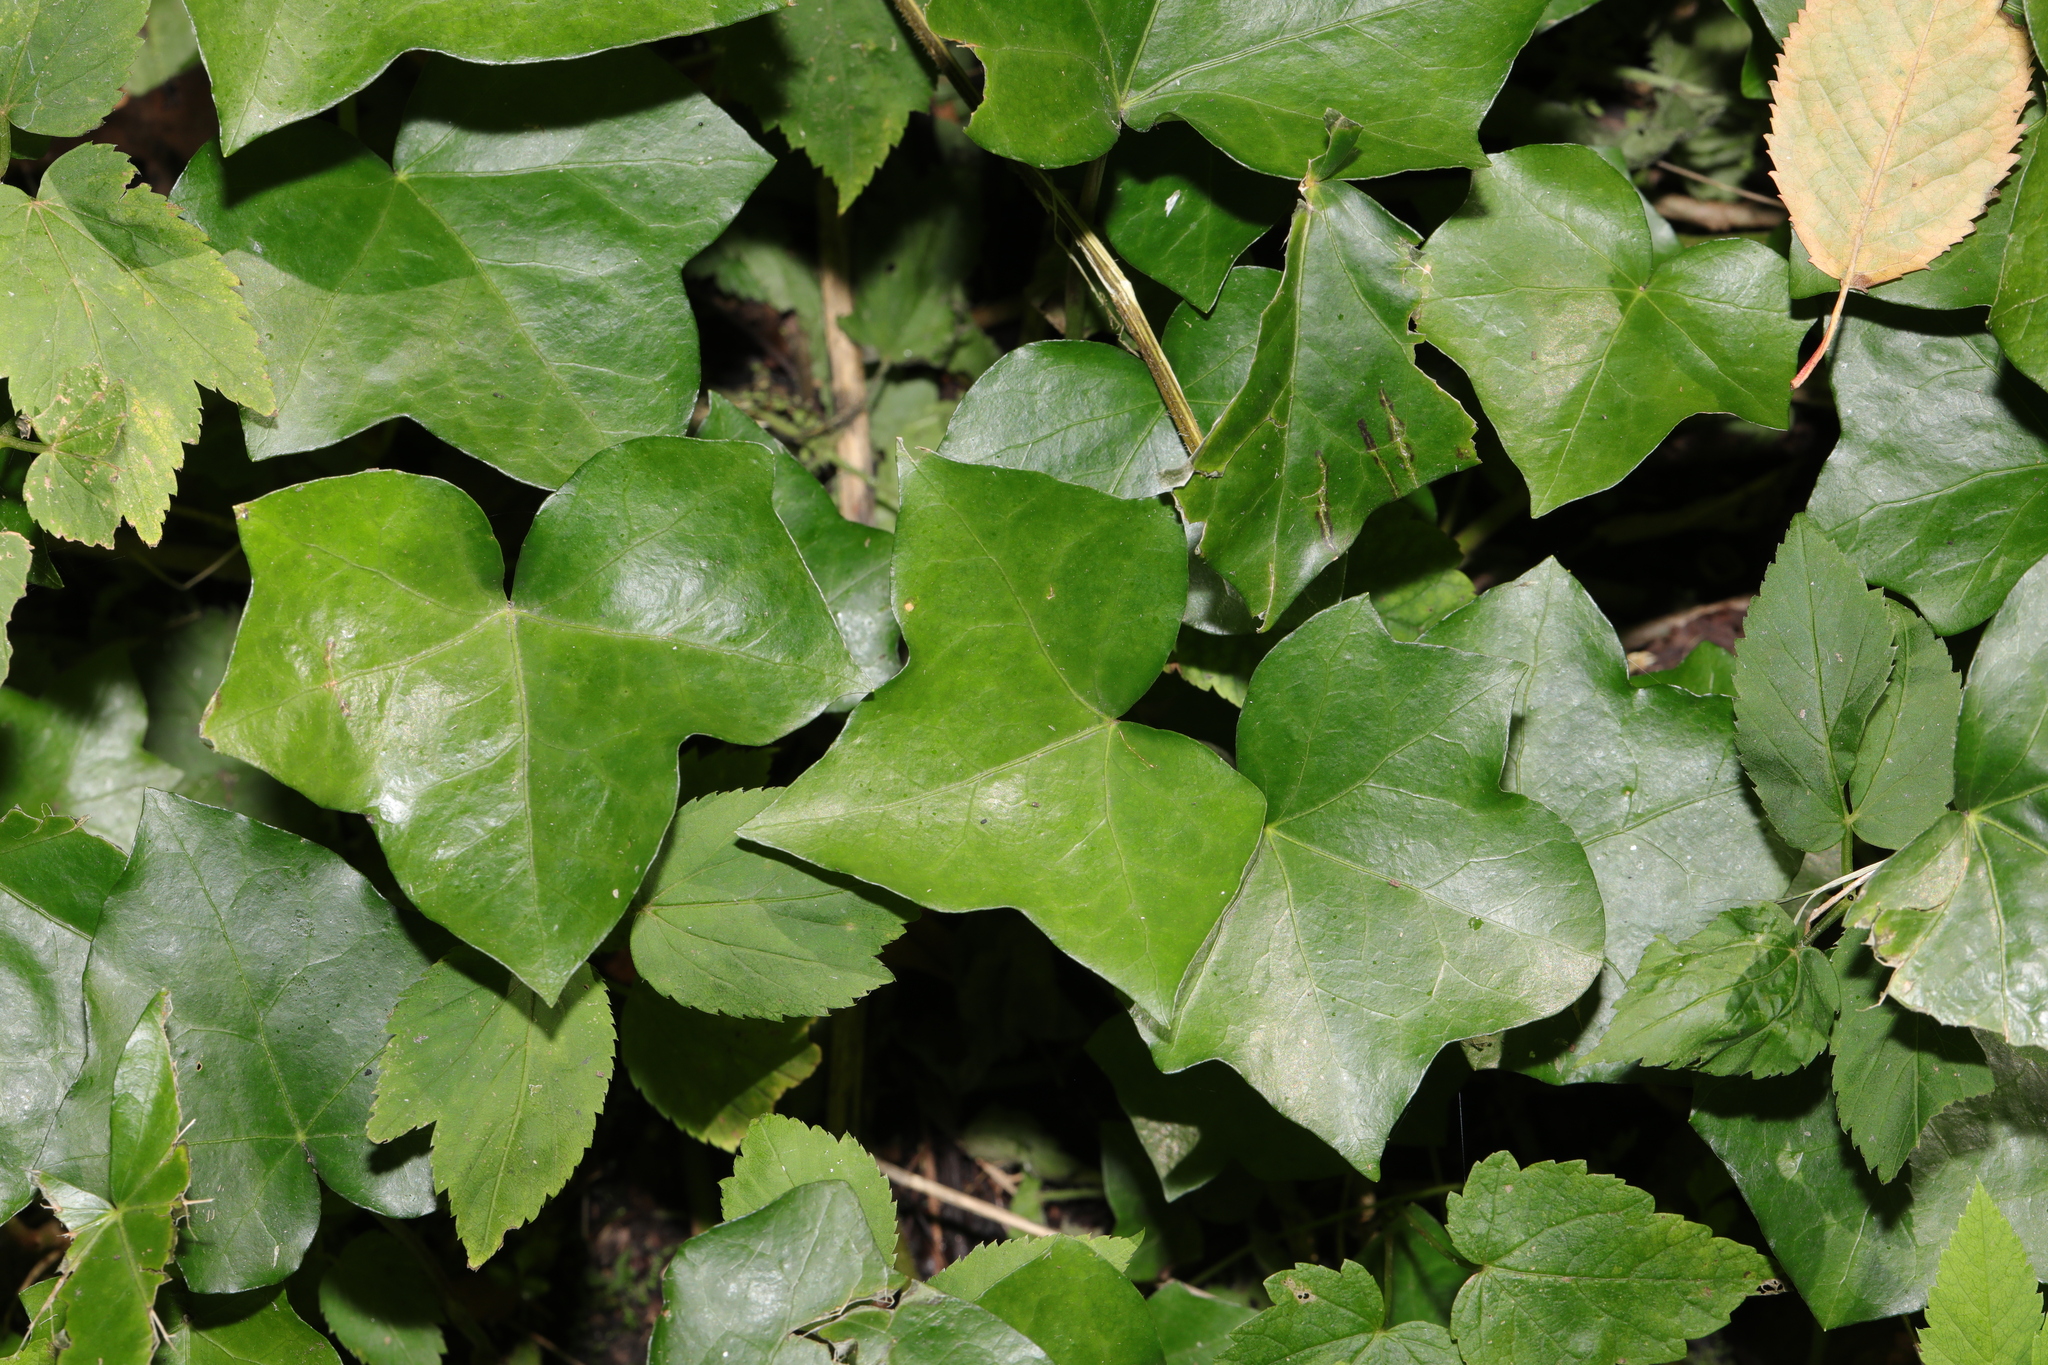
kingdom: Plantae
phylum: Tracheophyta
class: Magnoliopsida
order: Apiales
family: Araliaceae
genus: Hedera
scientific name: Hedera helix
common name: Ivy
